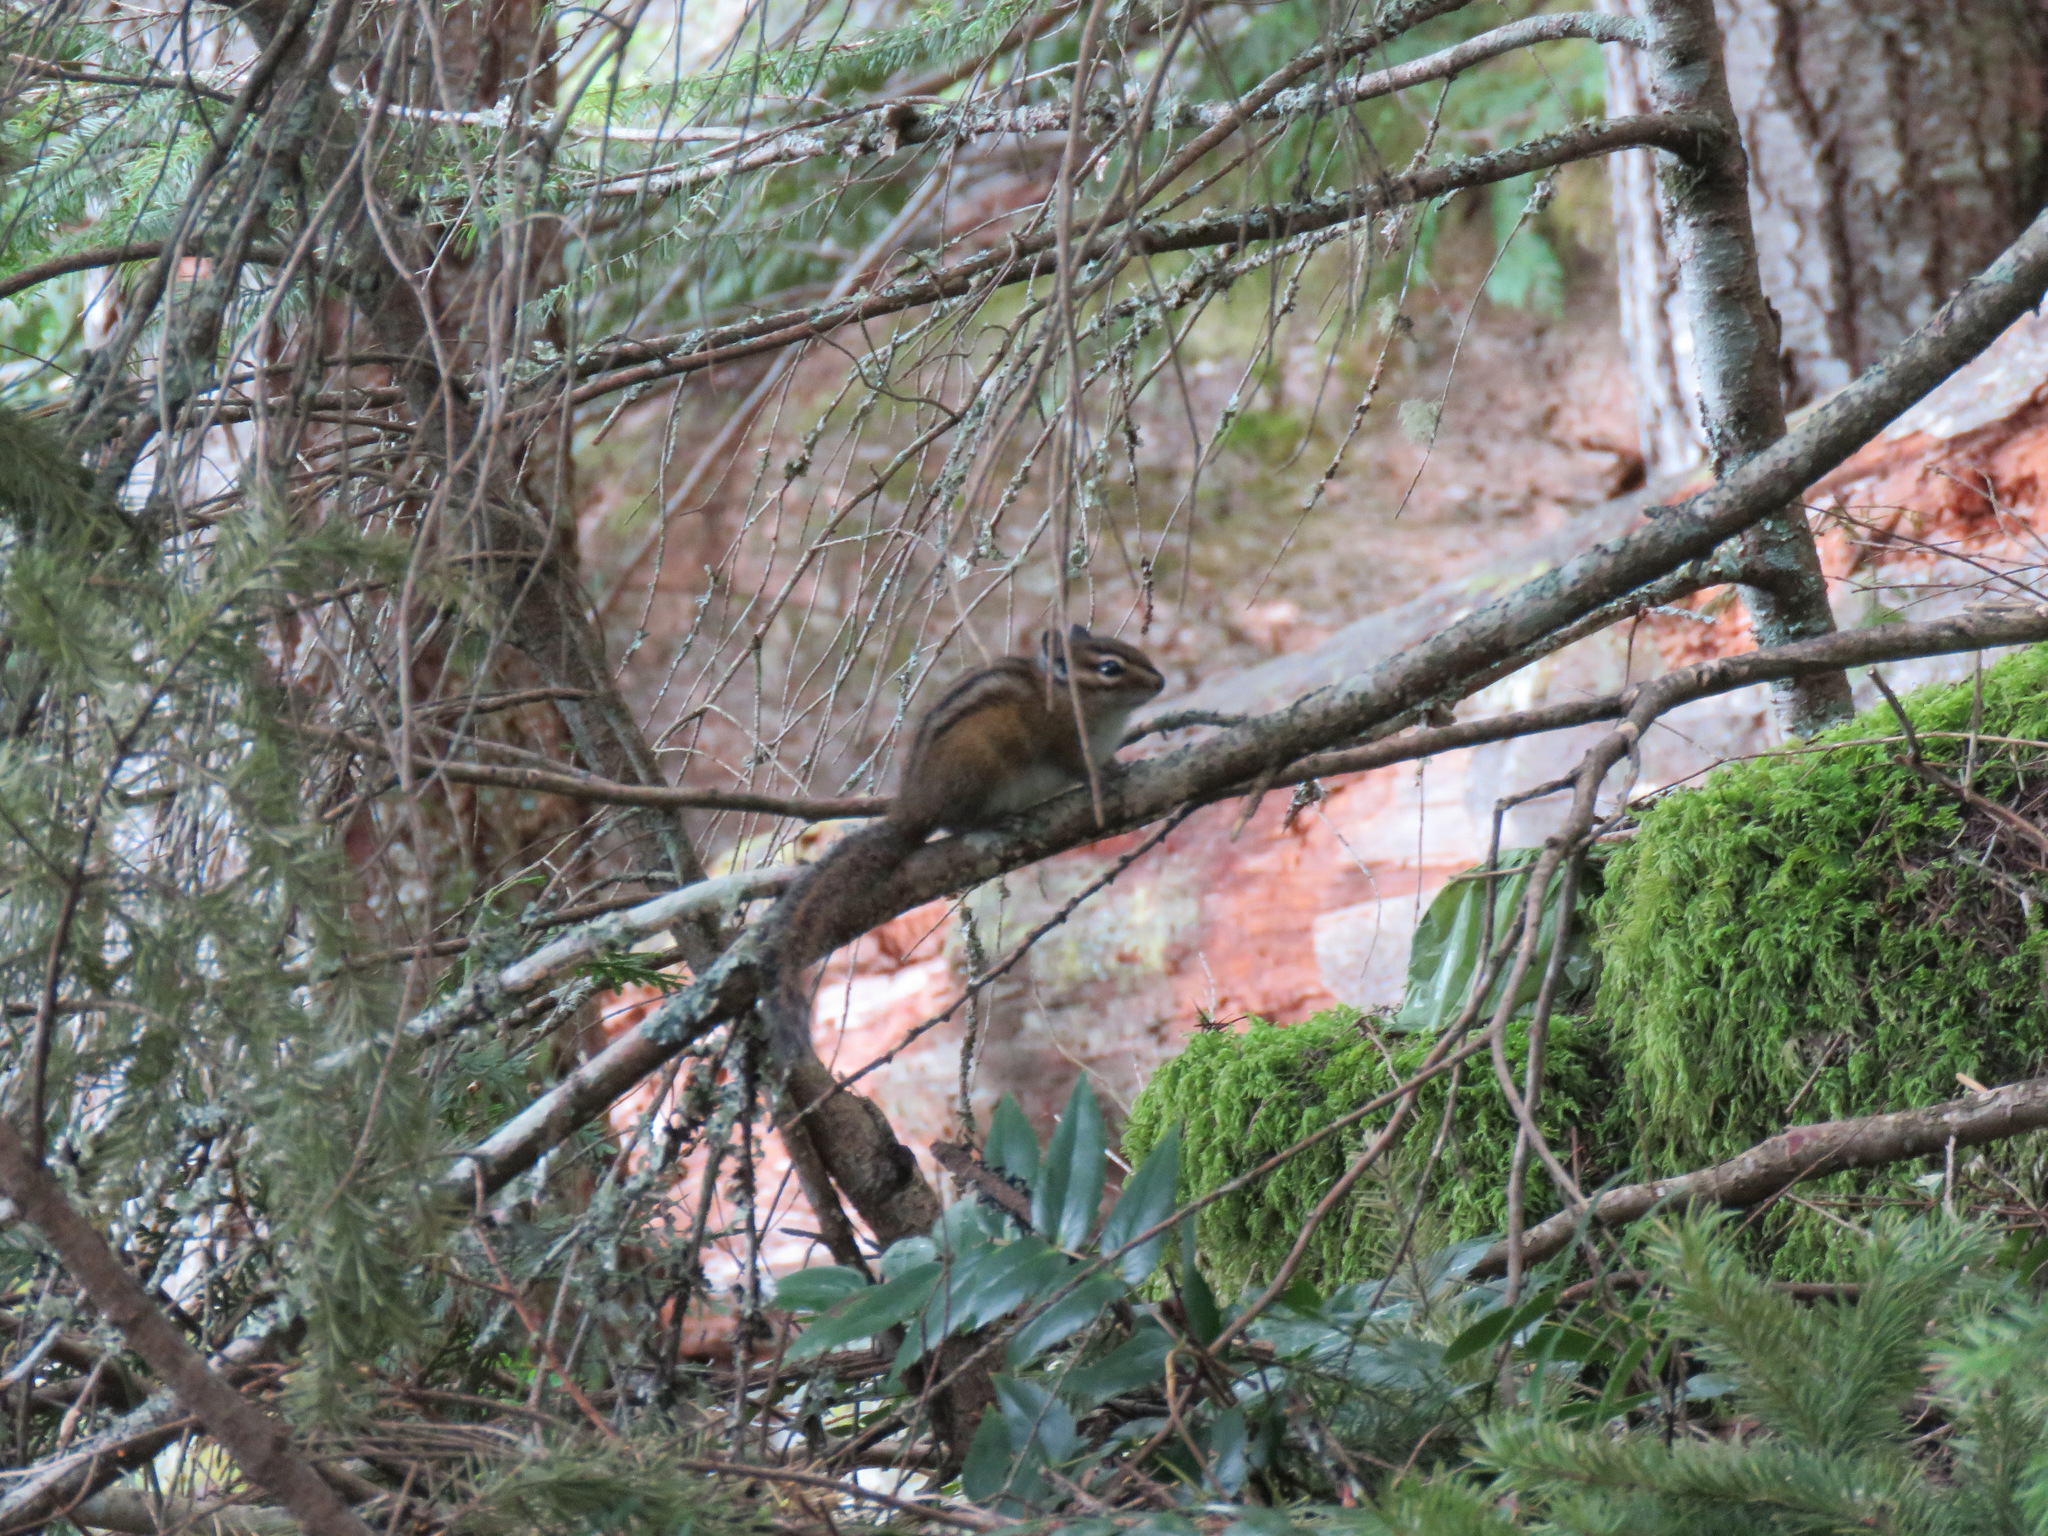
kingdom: Animalia
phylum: Chordata
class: Mammalia
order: Rodentia
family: Sciuridae
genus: Tamias
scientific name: Tamias townsendii
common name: Townsend's chipmunk
